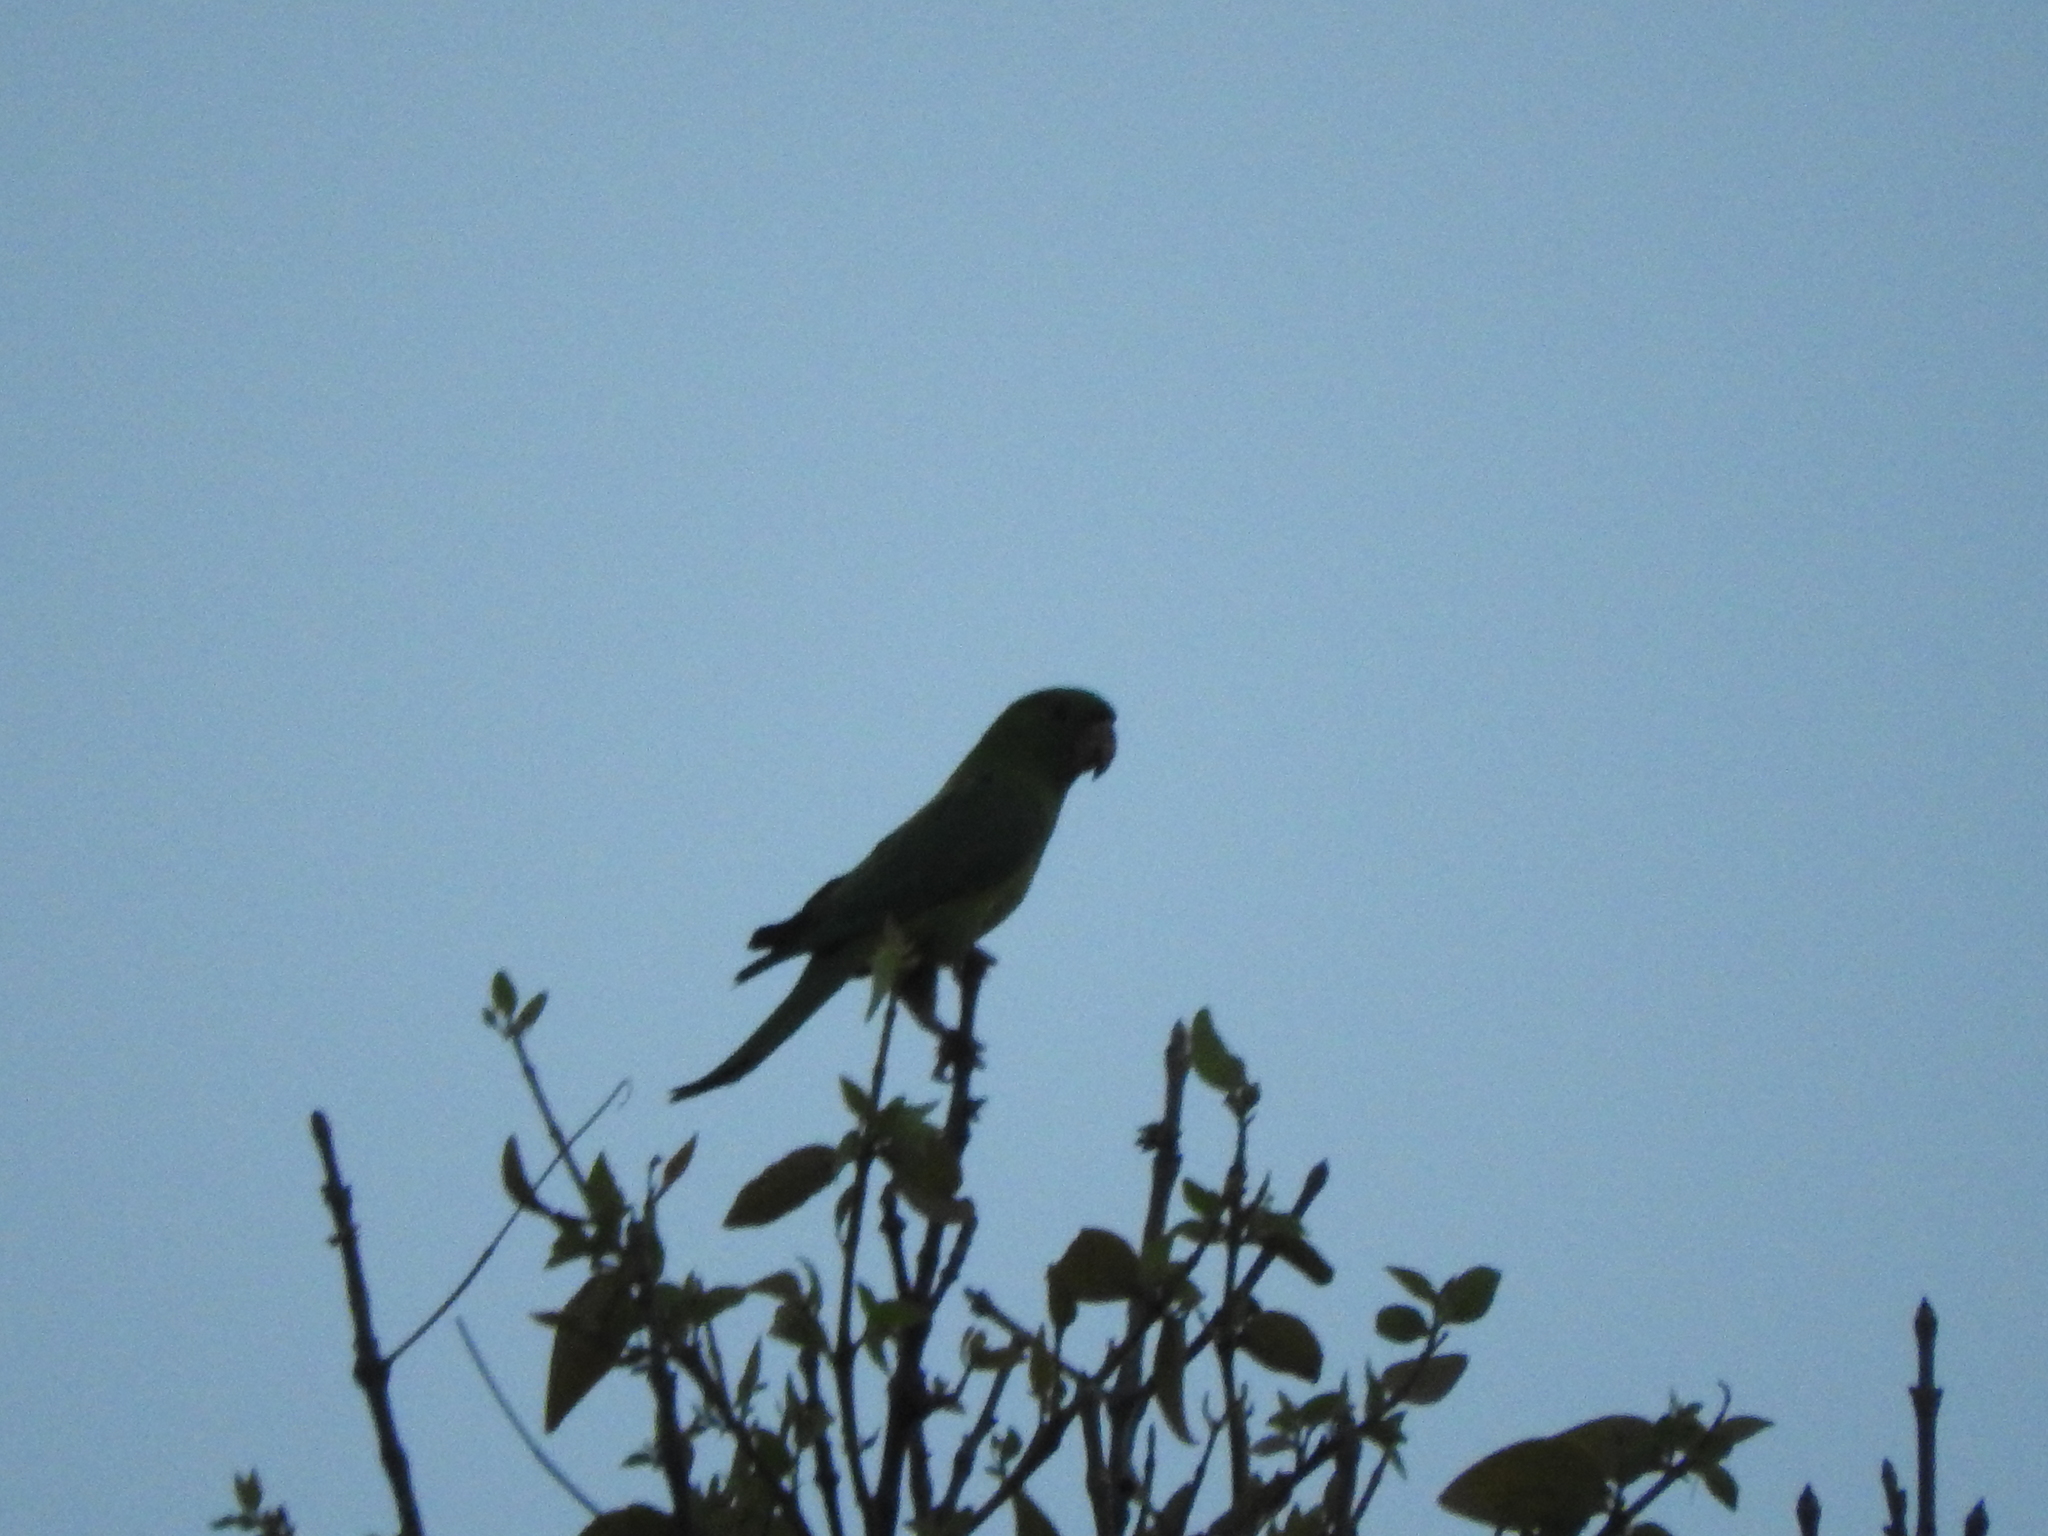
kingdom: Animalia
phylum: Chordata
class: Aves
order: Psittaciformes
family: Psittacidae
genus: Aratinga
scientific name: Aratinga holochlora
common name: Green parakeet
